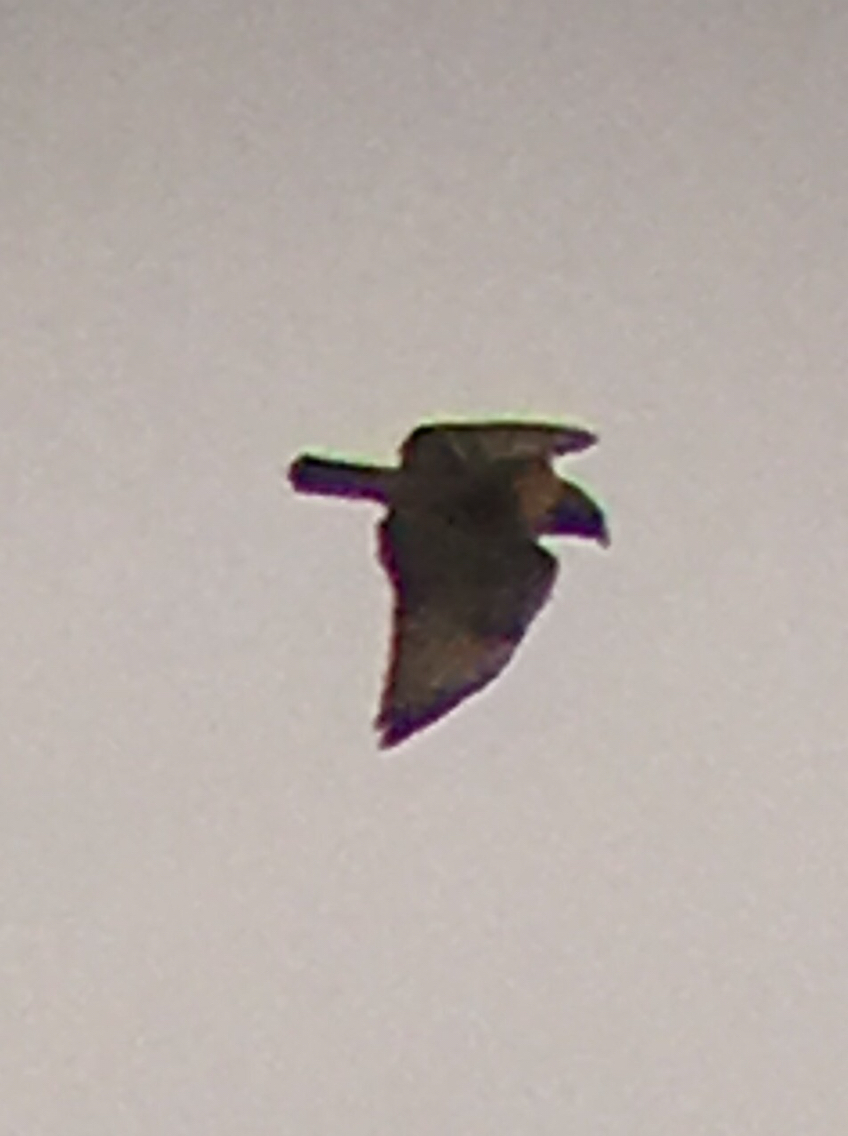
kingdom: Animalia
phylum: Chordata
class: Aves
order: Accipitriformes
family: Accipitridae
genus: Buteo
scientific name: Buteo jamaicensis
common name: Red-tailed hawk
